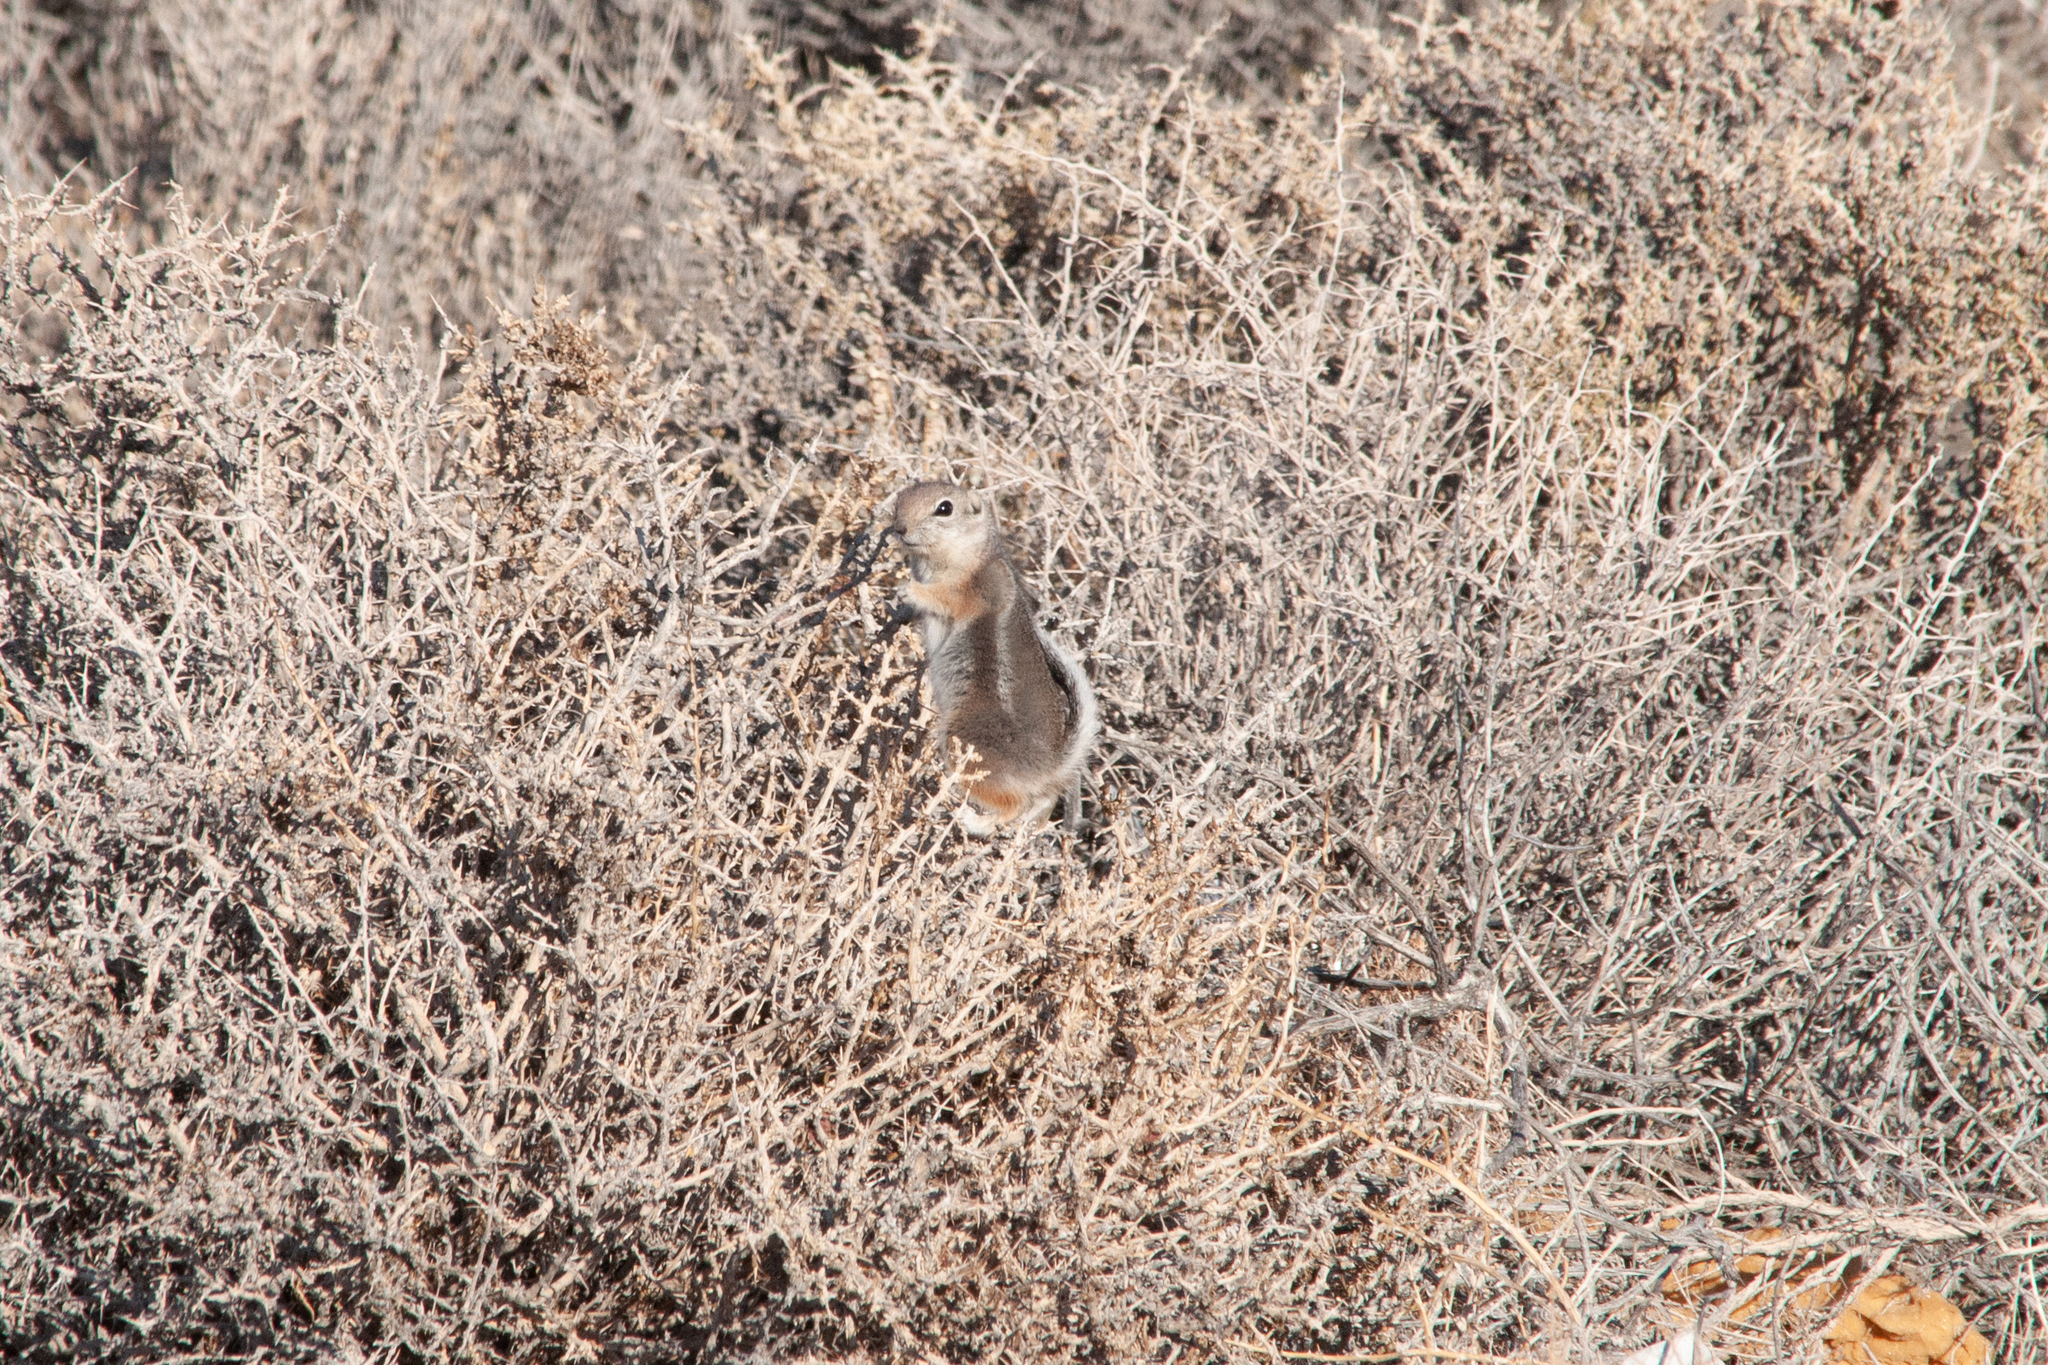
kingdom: Animalia
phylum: Chordata
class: Mammalia
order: Rodentia
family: Sciuridae
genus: Ammospermophilus
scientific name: Ammospermophilus leucurus
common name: White-tailed antelope squirrel
